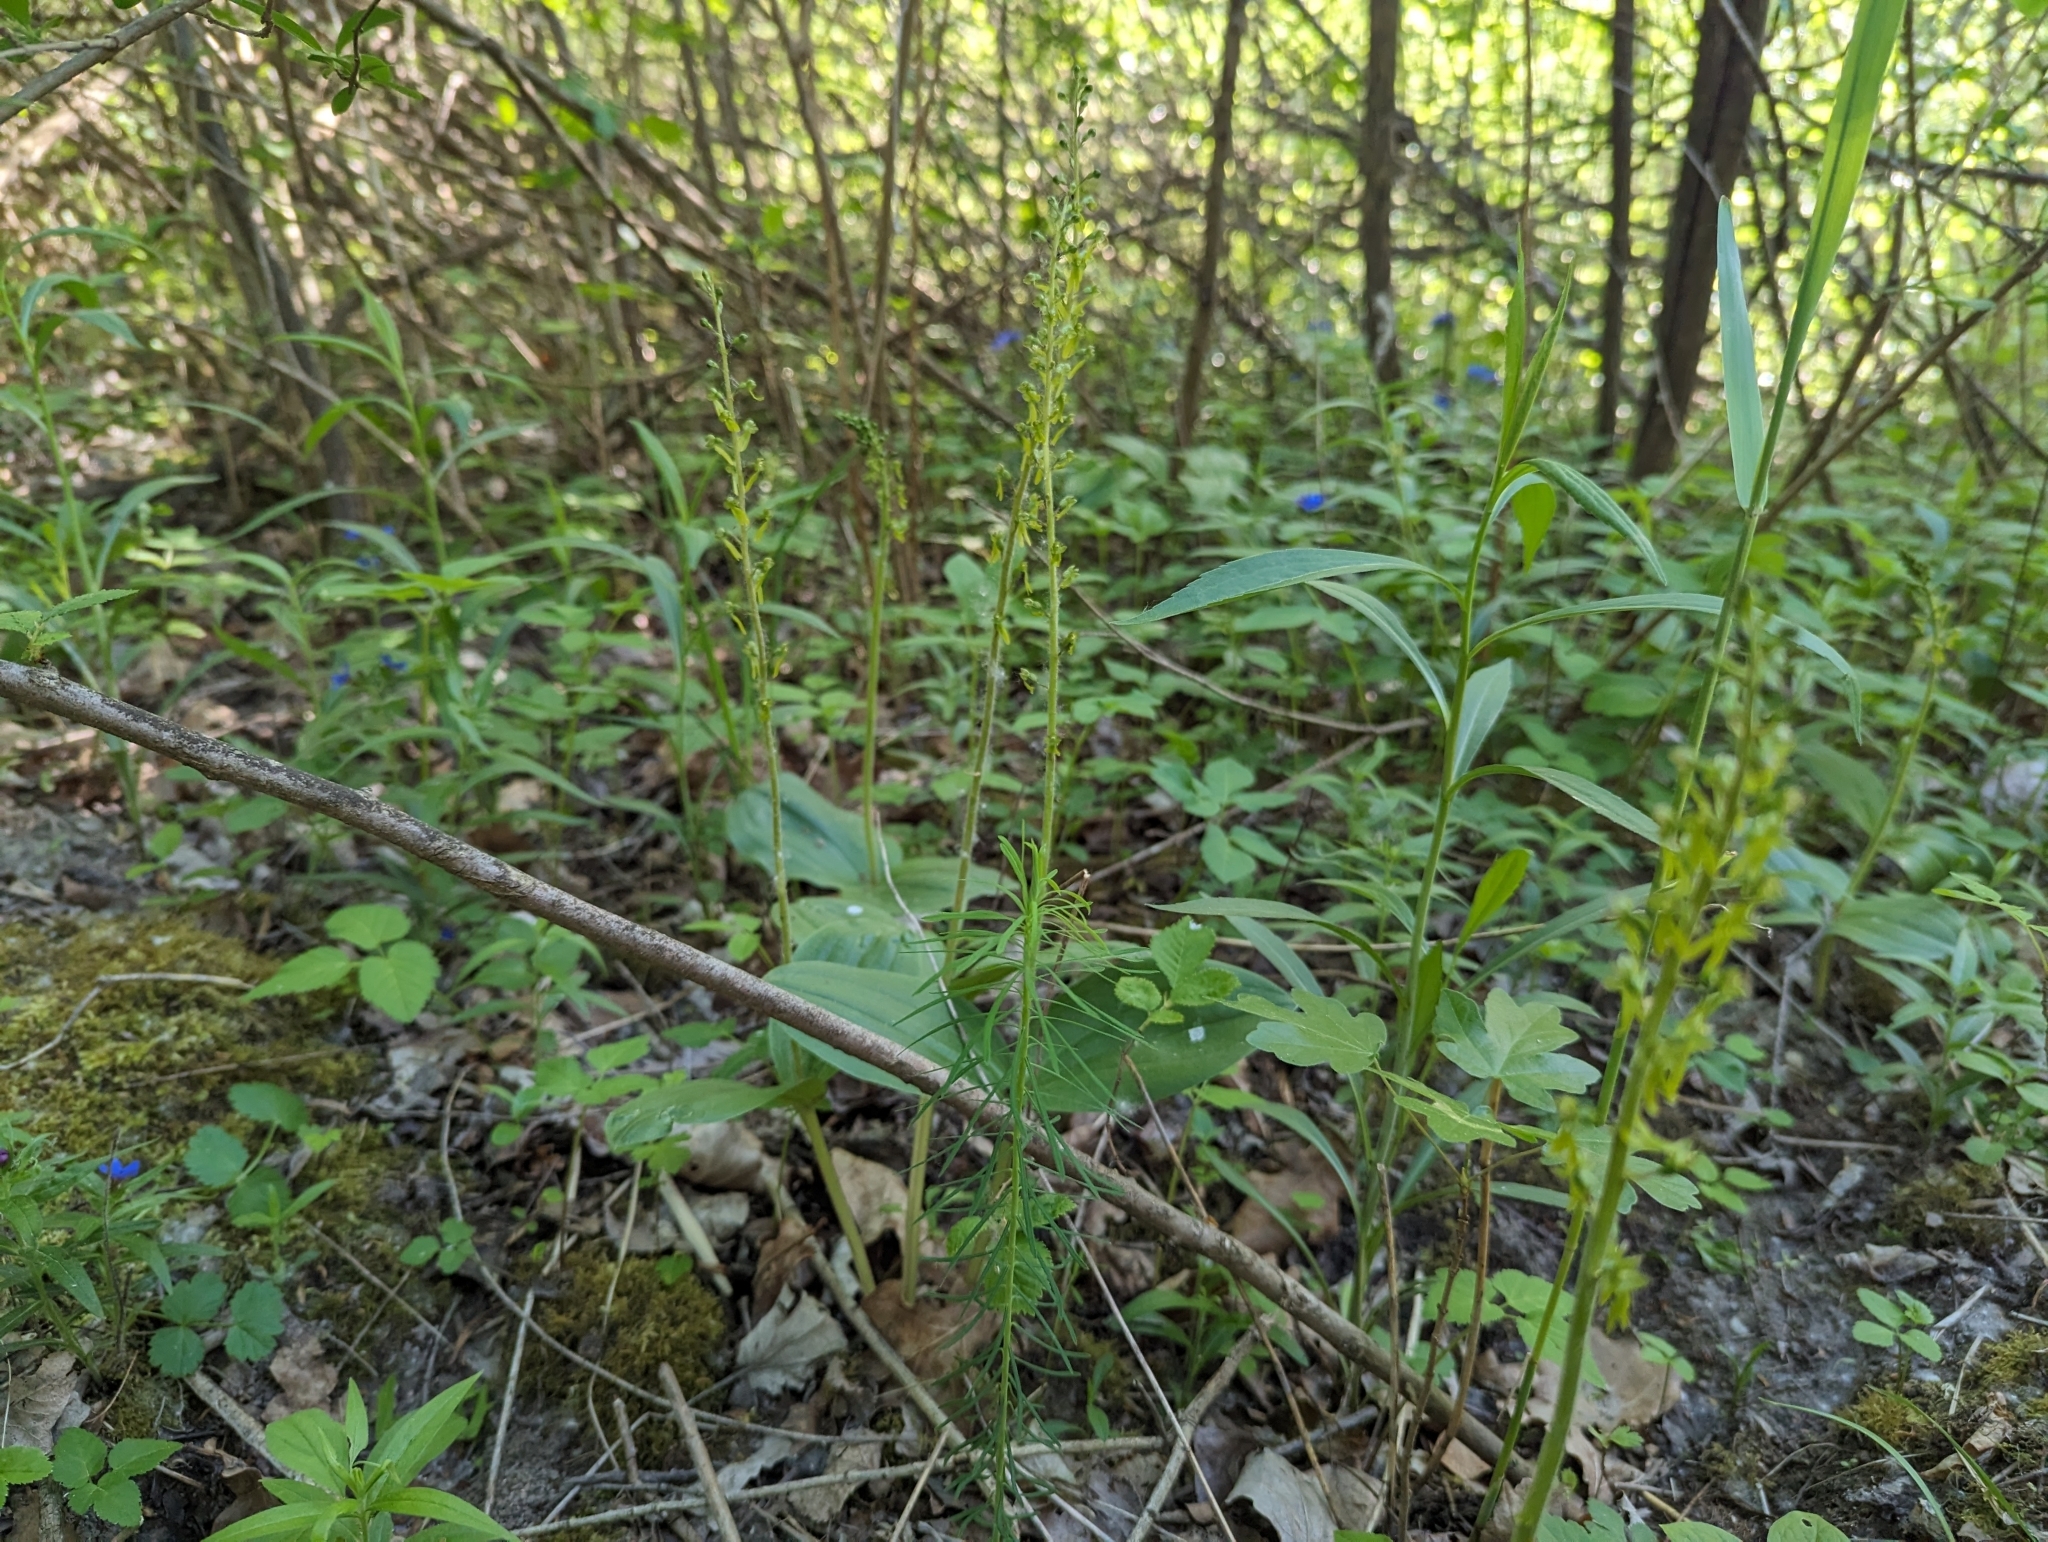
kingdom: Plantae
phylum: Tracheophyta
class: Liliopsida
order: Asparagales
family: Orchidaceae
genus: Neottia
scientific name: Neottia ovata
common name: Common twayblade
